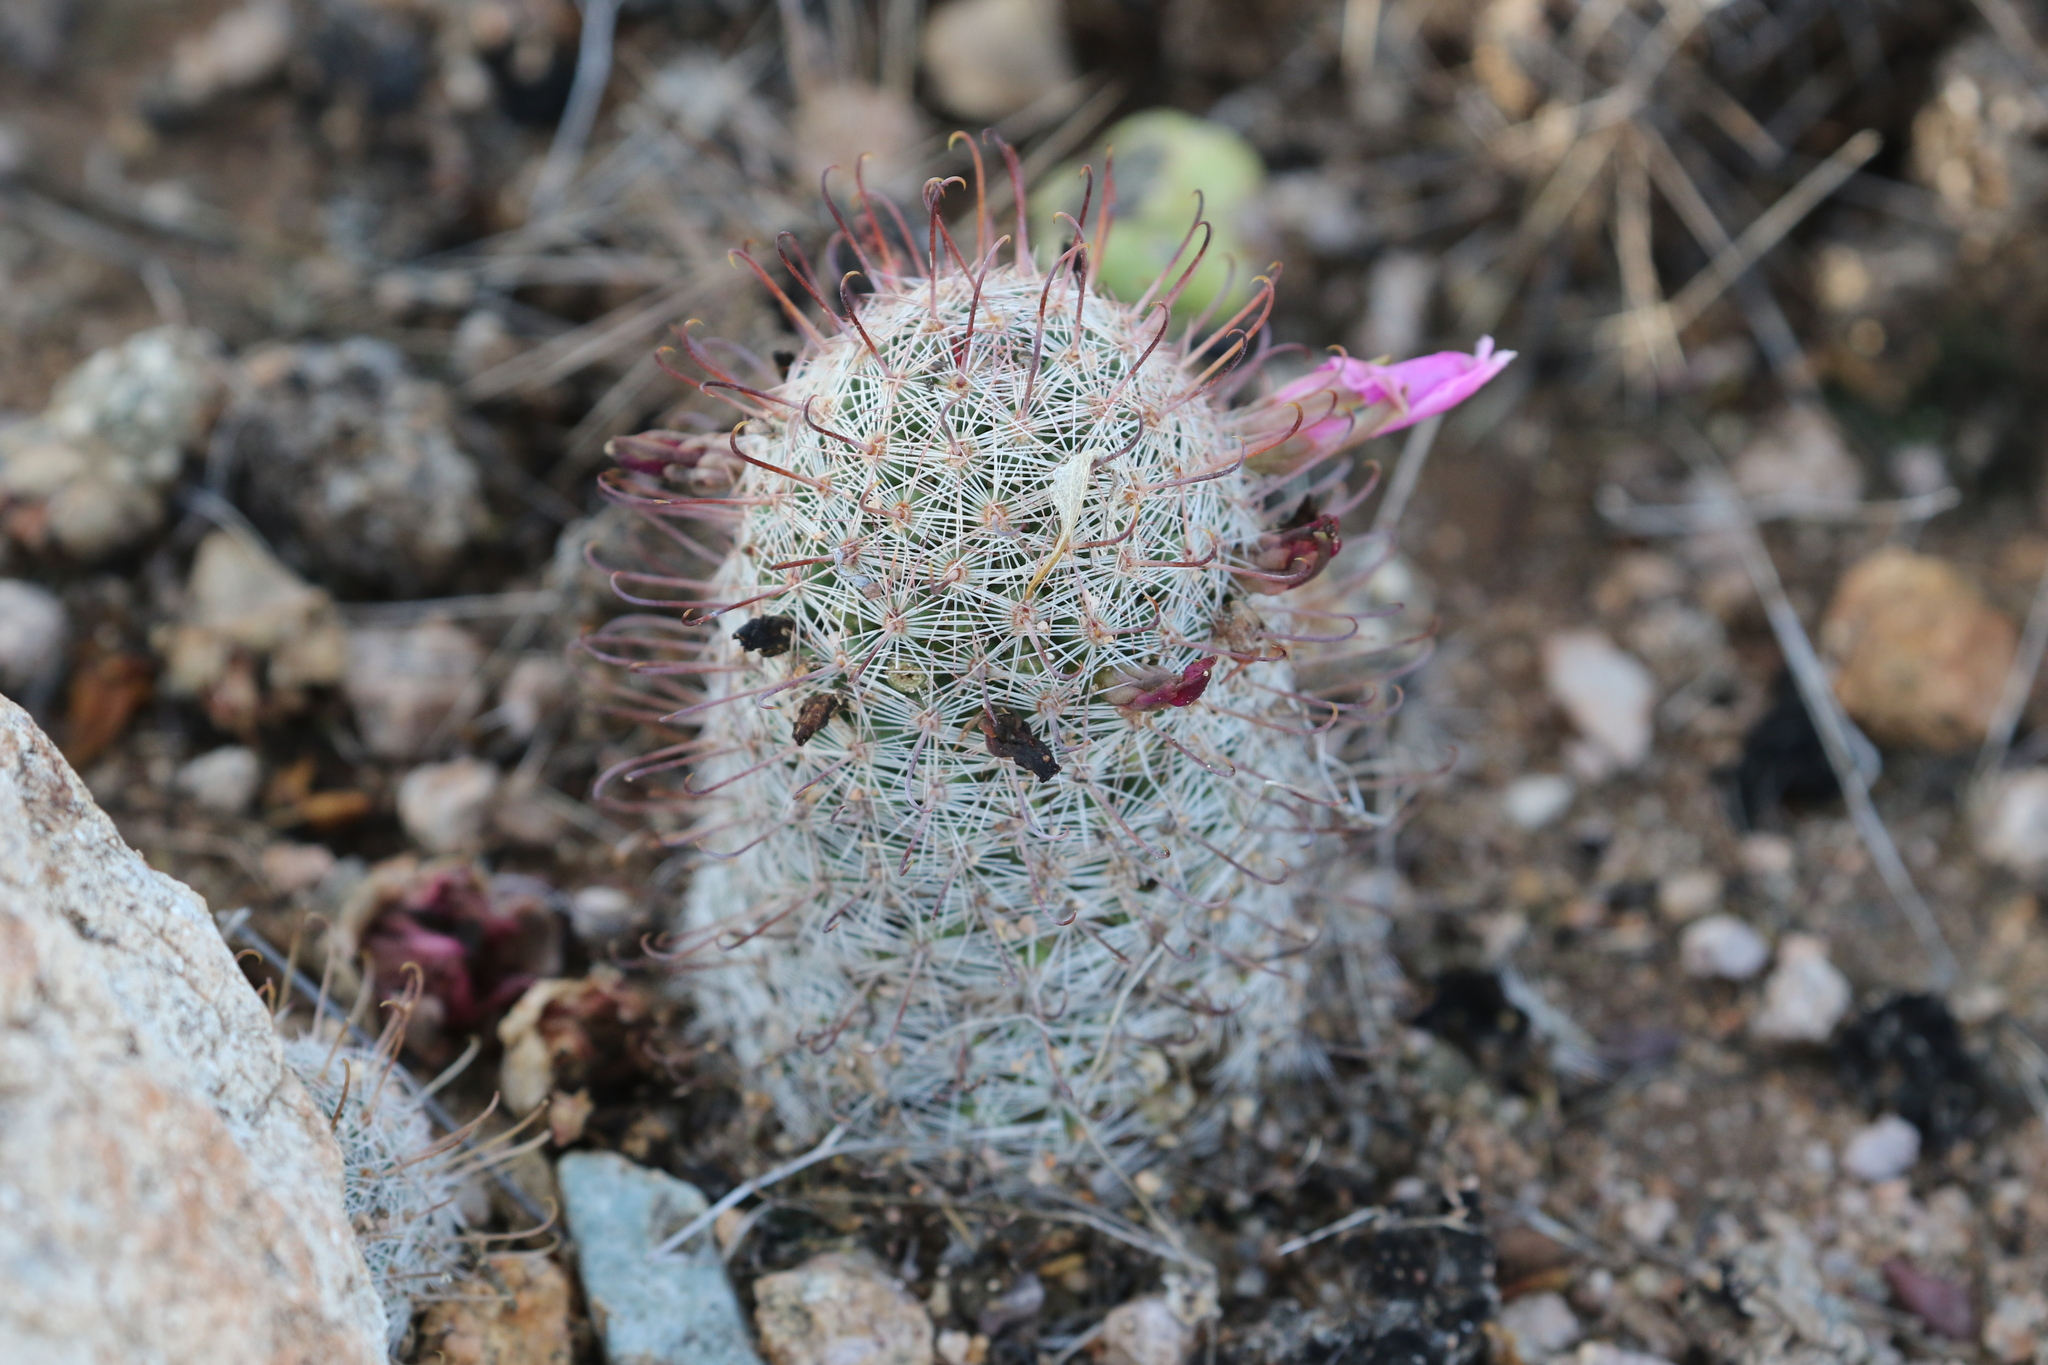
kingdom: Plantae
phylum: Tracheophyta
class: Magnoliopsida
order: Caryophyllales
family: Cactaceae
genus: Cochemiea
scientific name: Cochemiea grahamii
